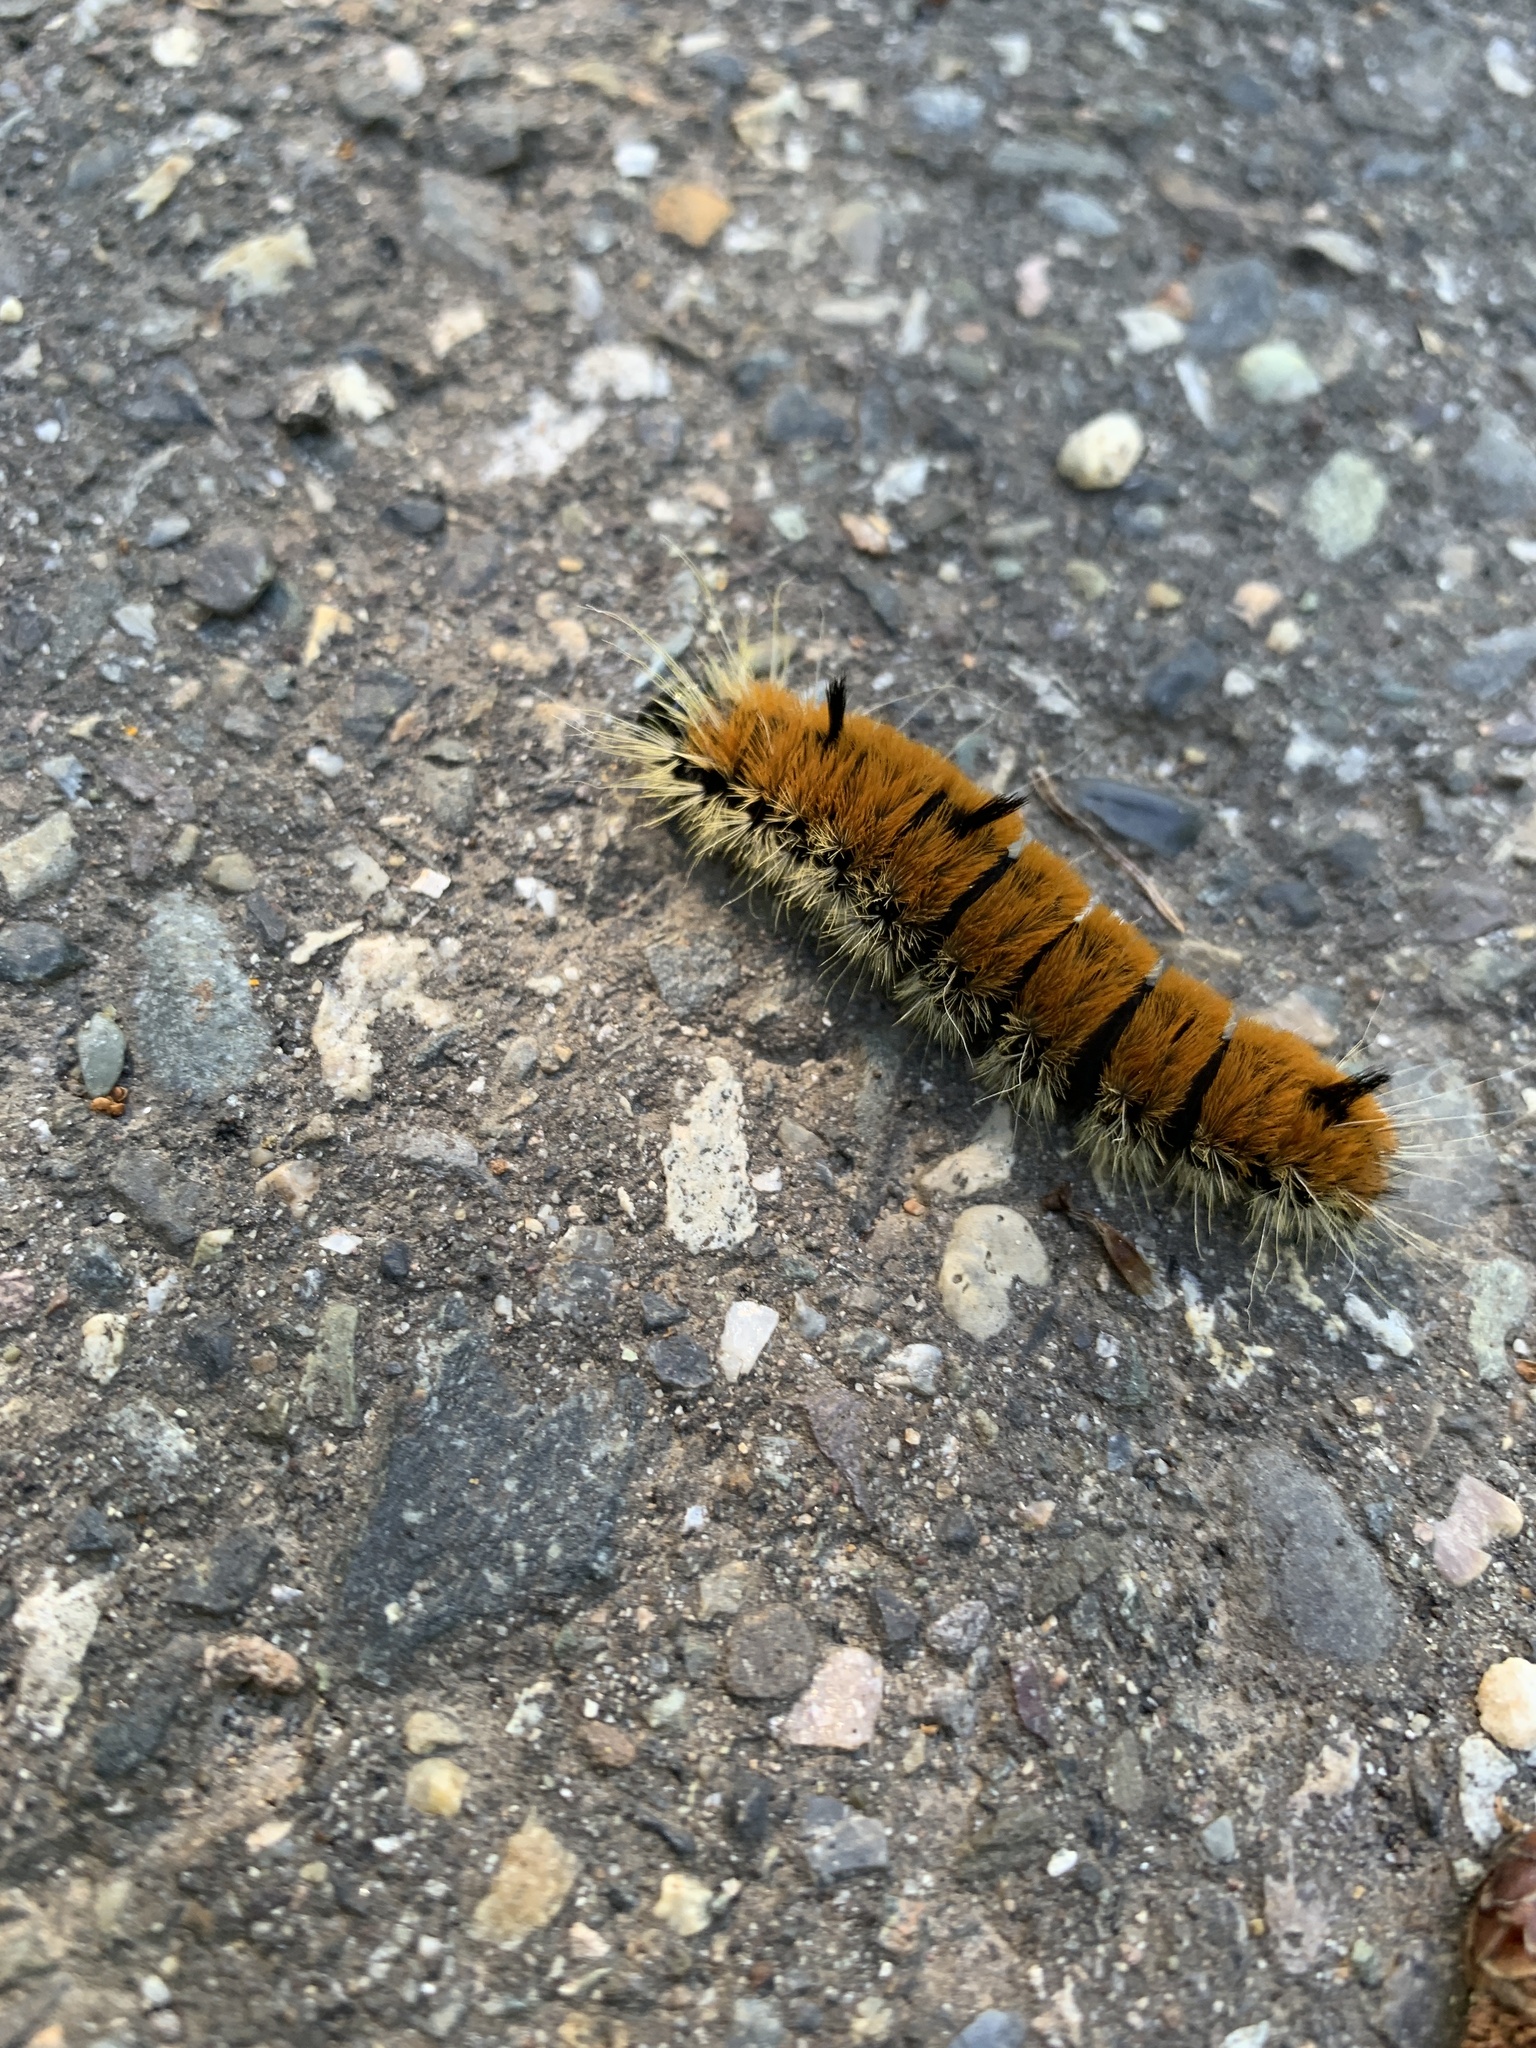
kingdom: Animalia
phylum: Arthropoda
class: Insecta
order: Lepidoptera
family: Noctuidae
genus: Acronicta
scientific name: Acronicta insita
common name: Large gray dagger
